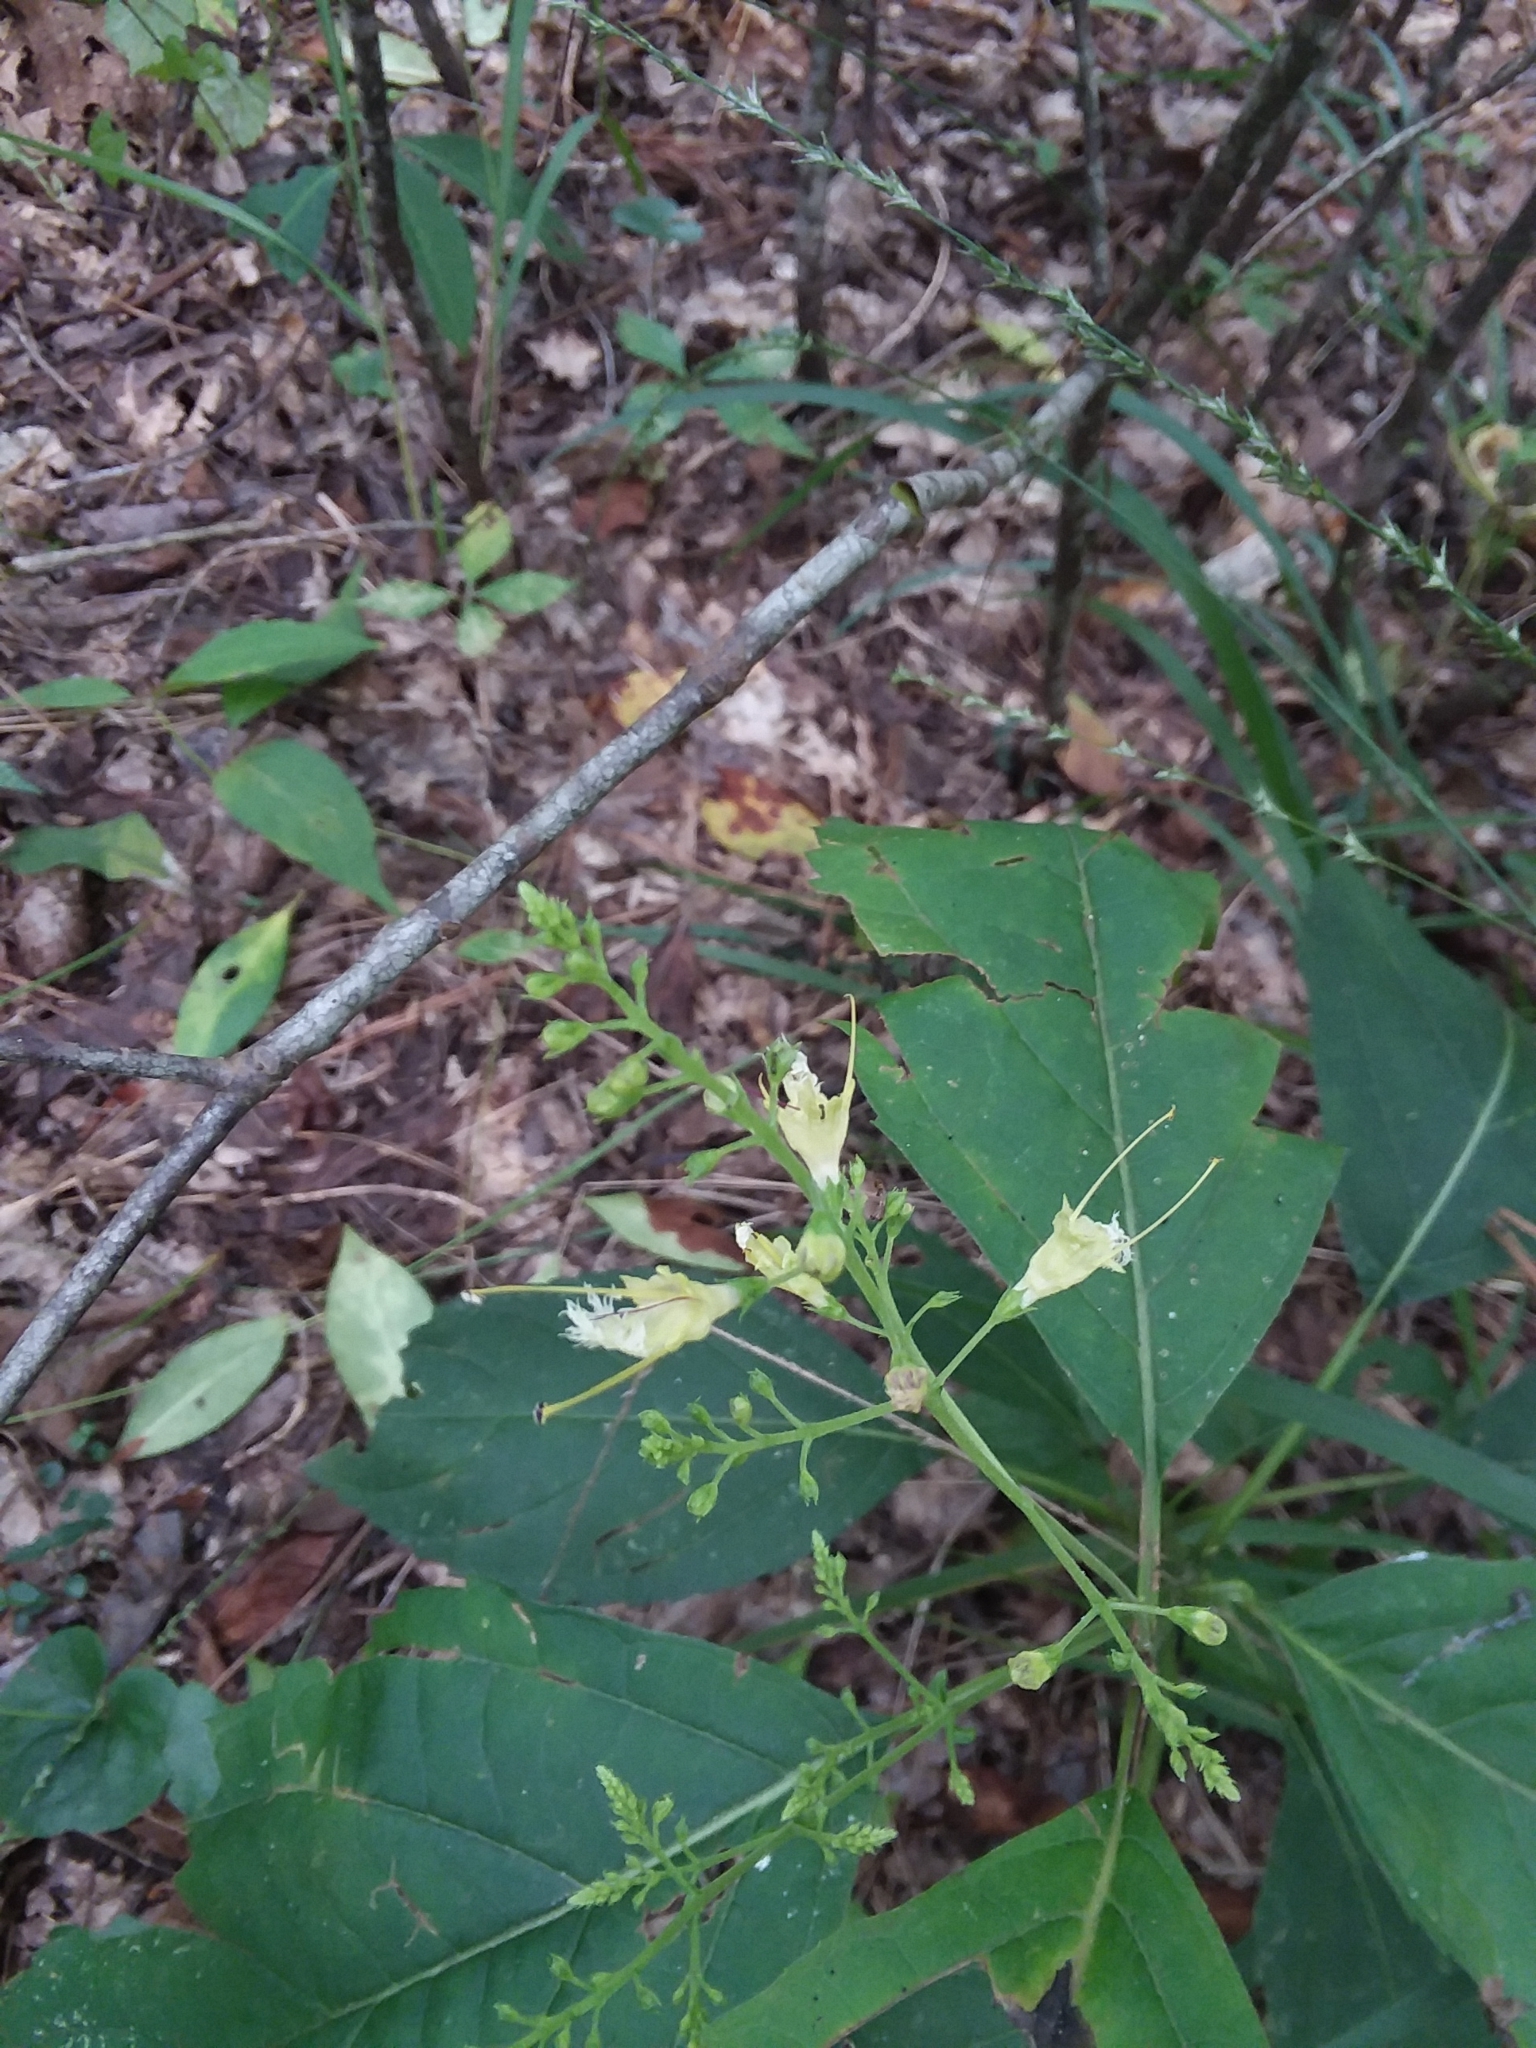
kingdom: Plantae
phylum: Tracheophyta
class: Magnoliopsida
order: Lamiales
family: Lamiaceae
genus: Collinsonia
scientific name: Collinsonia punctata
